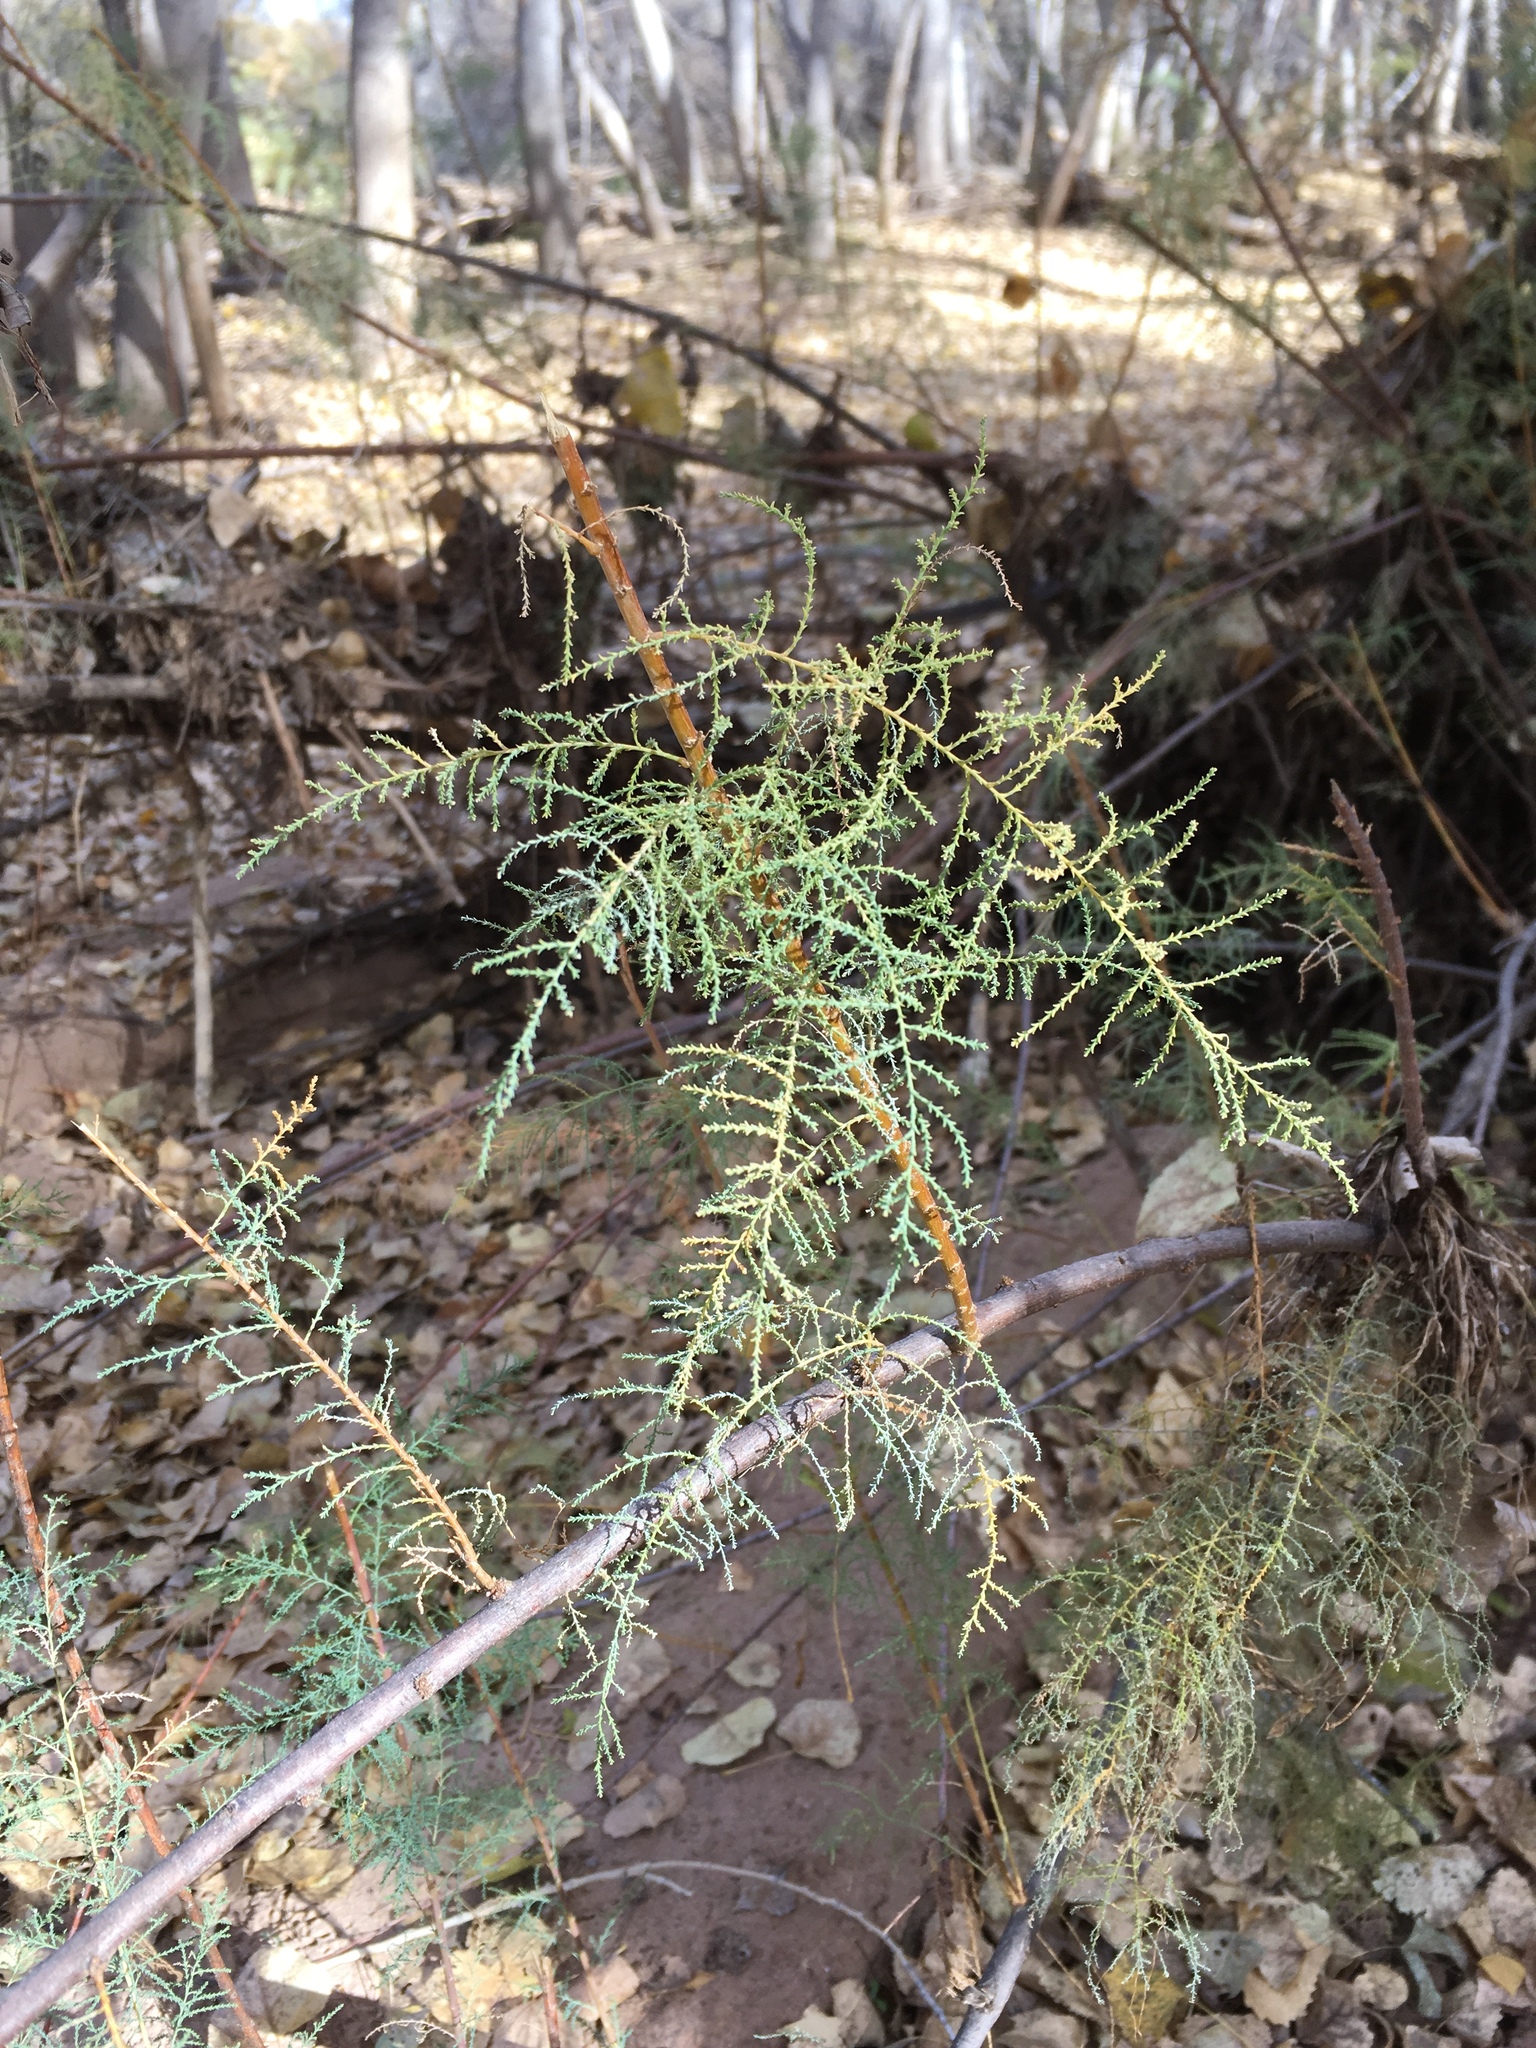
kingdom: Plantae
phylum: Tracheophyta
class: Magnoliopsida
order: Caryophyllales
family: Tamaricaceae
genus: Tamarix
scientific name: Tamarix chinensis
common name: Chinese tamarisk
